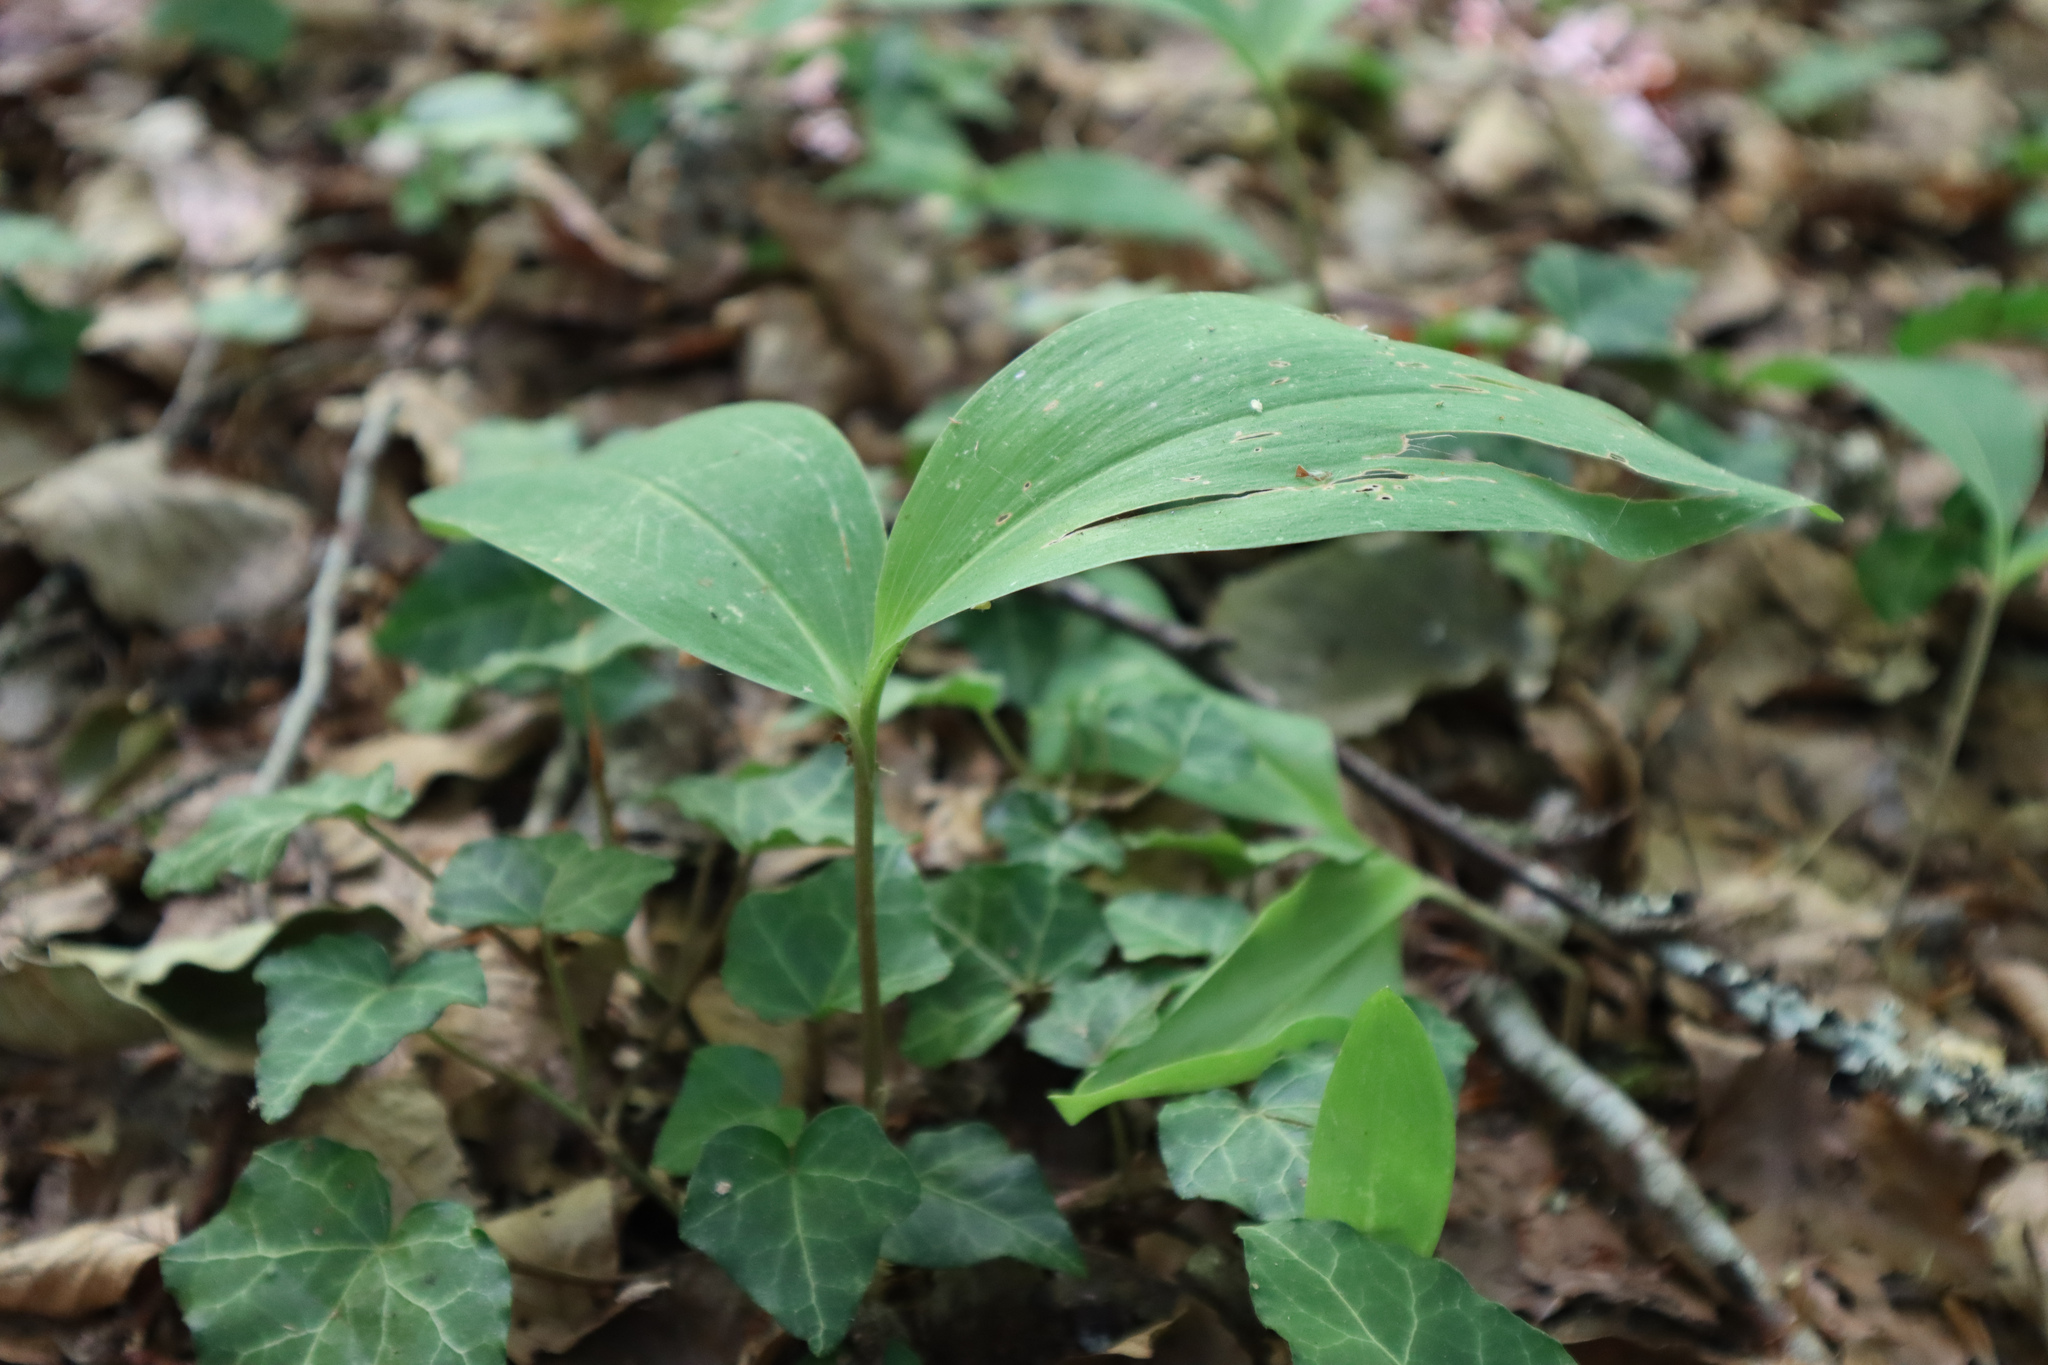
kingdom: Plantae
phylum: Tracheophyta
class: Liliopsida
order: Asparagales
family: Asparagaceae
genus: Convallaria
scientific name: Convallaria majalis
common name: Lily-of-the-valley
